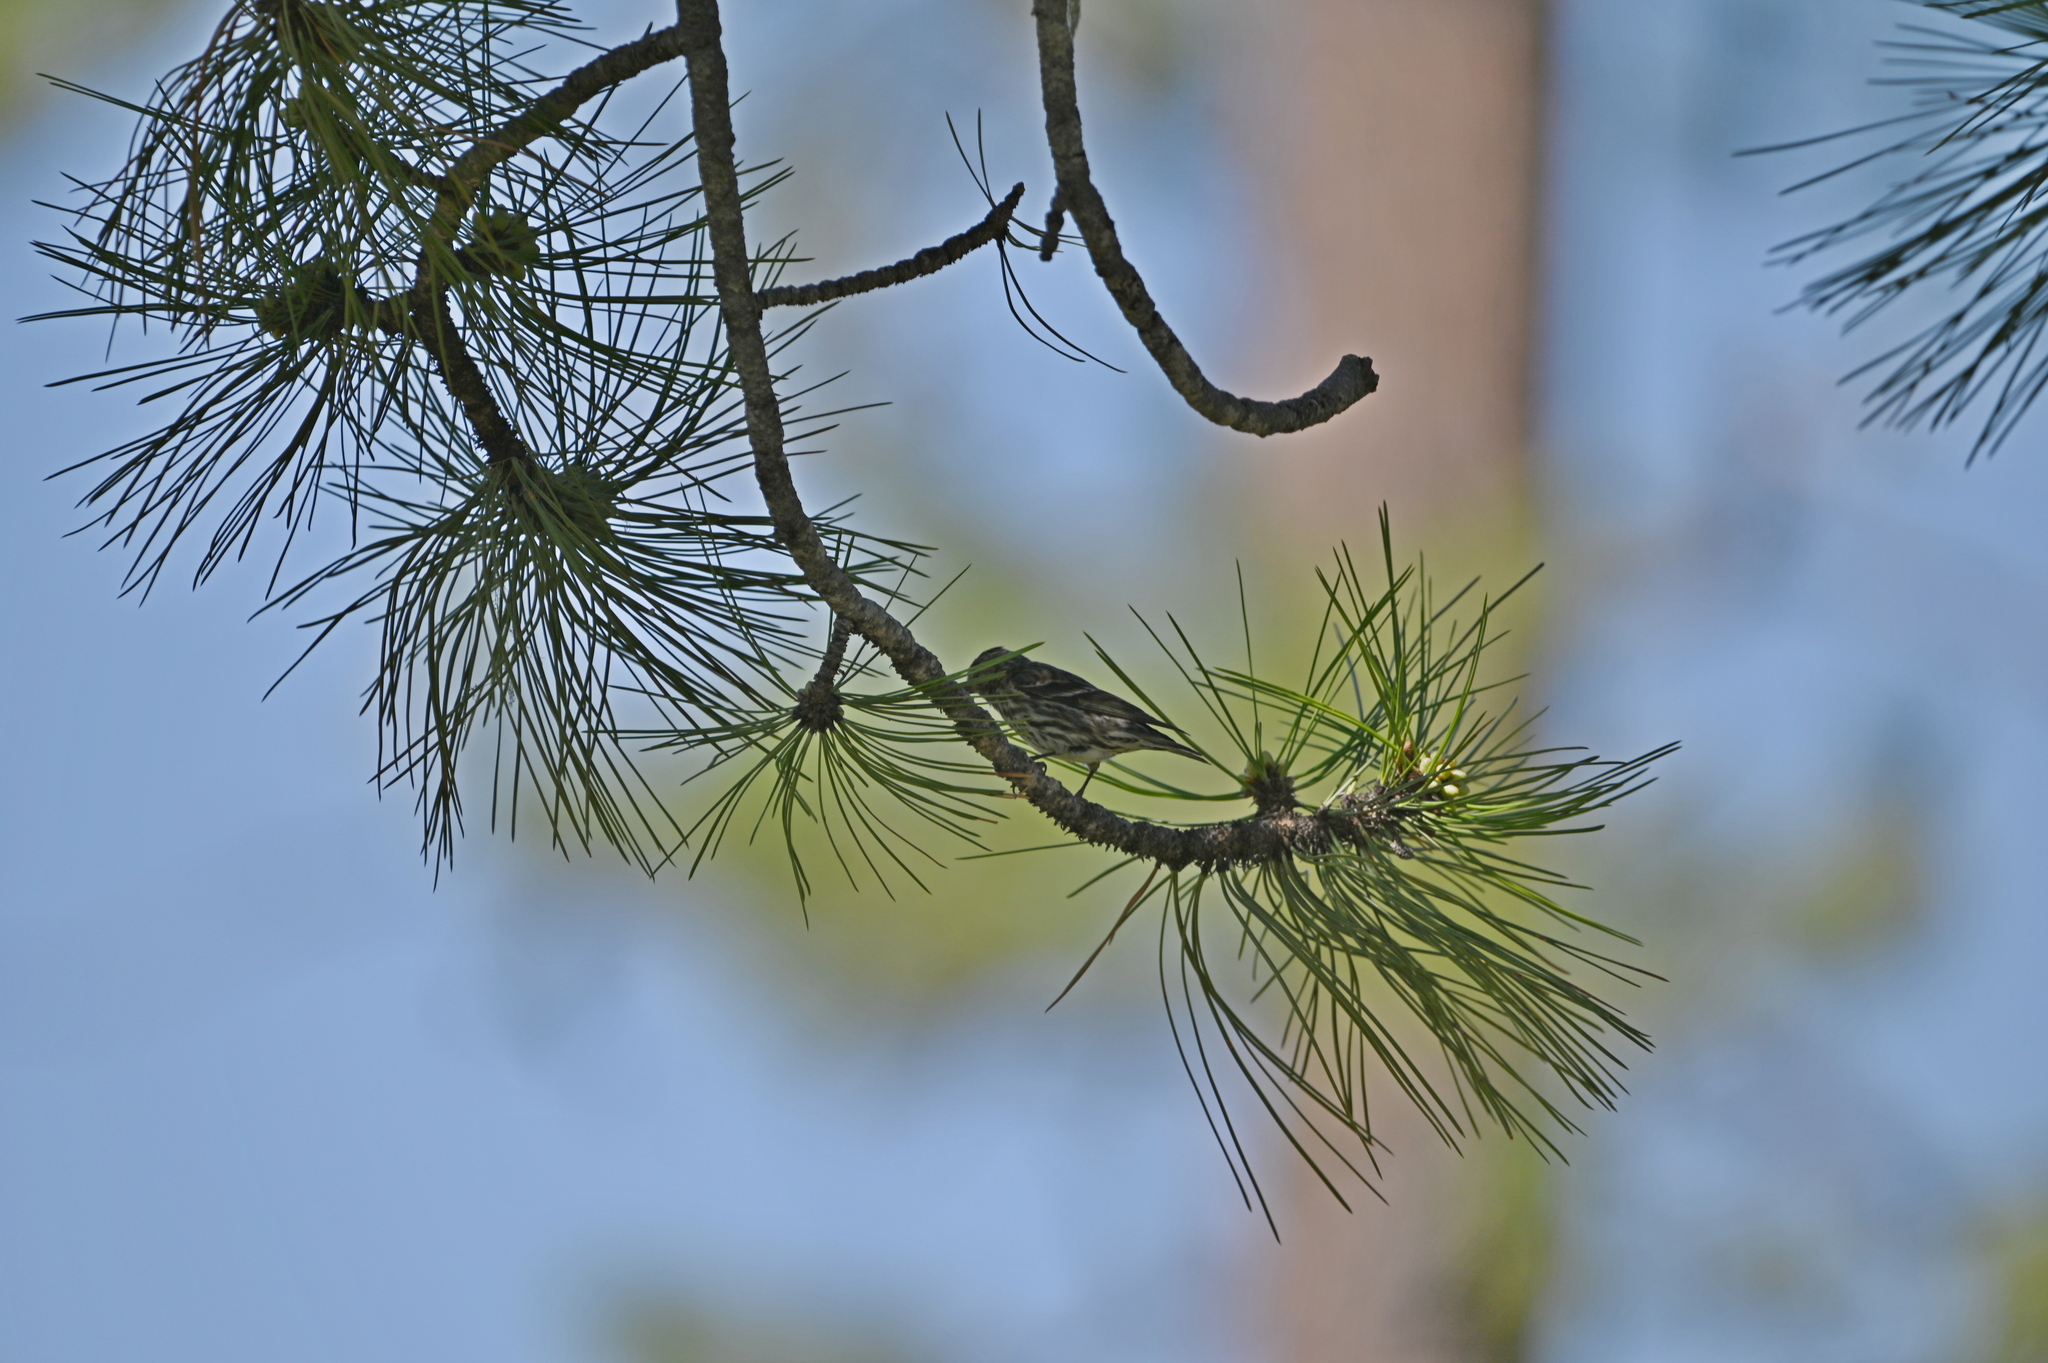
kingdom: Animalia
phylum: Chordata
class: Aves
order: Passeriformes
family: Fringillidae
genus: Spinus
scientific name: Spinus pinus
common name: Pine siskin
